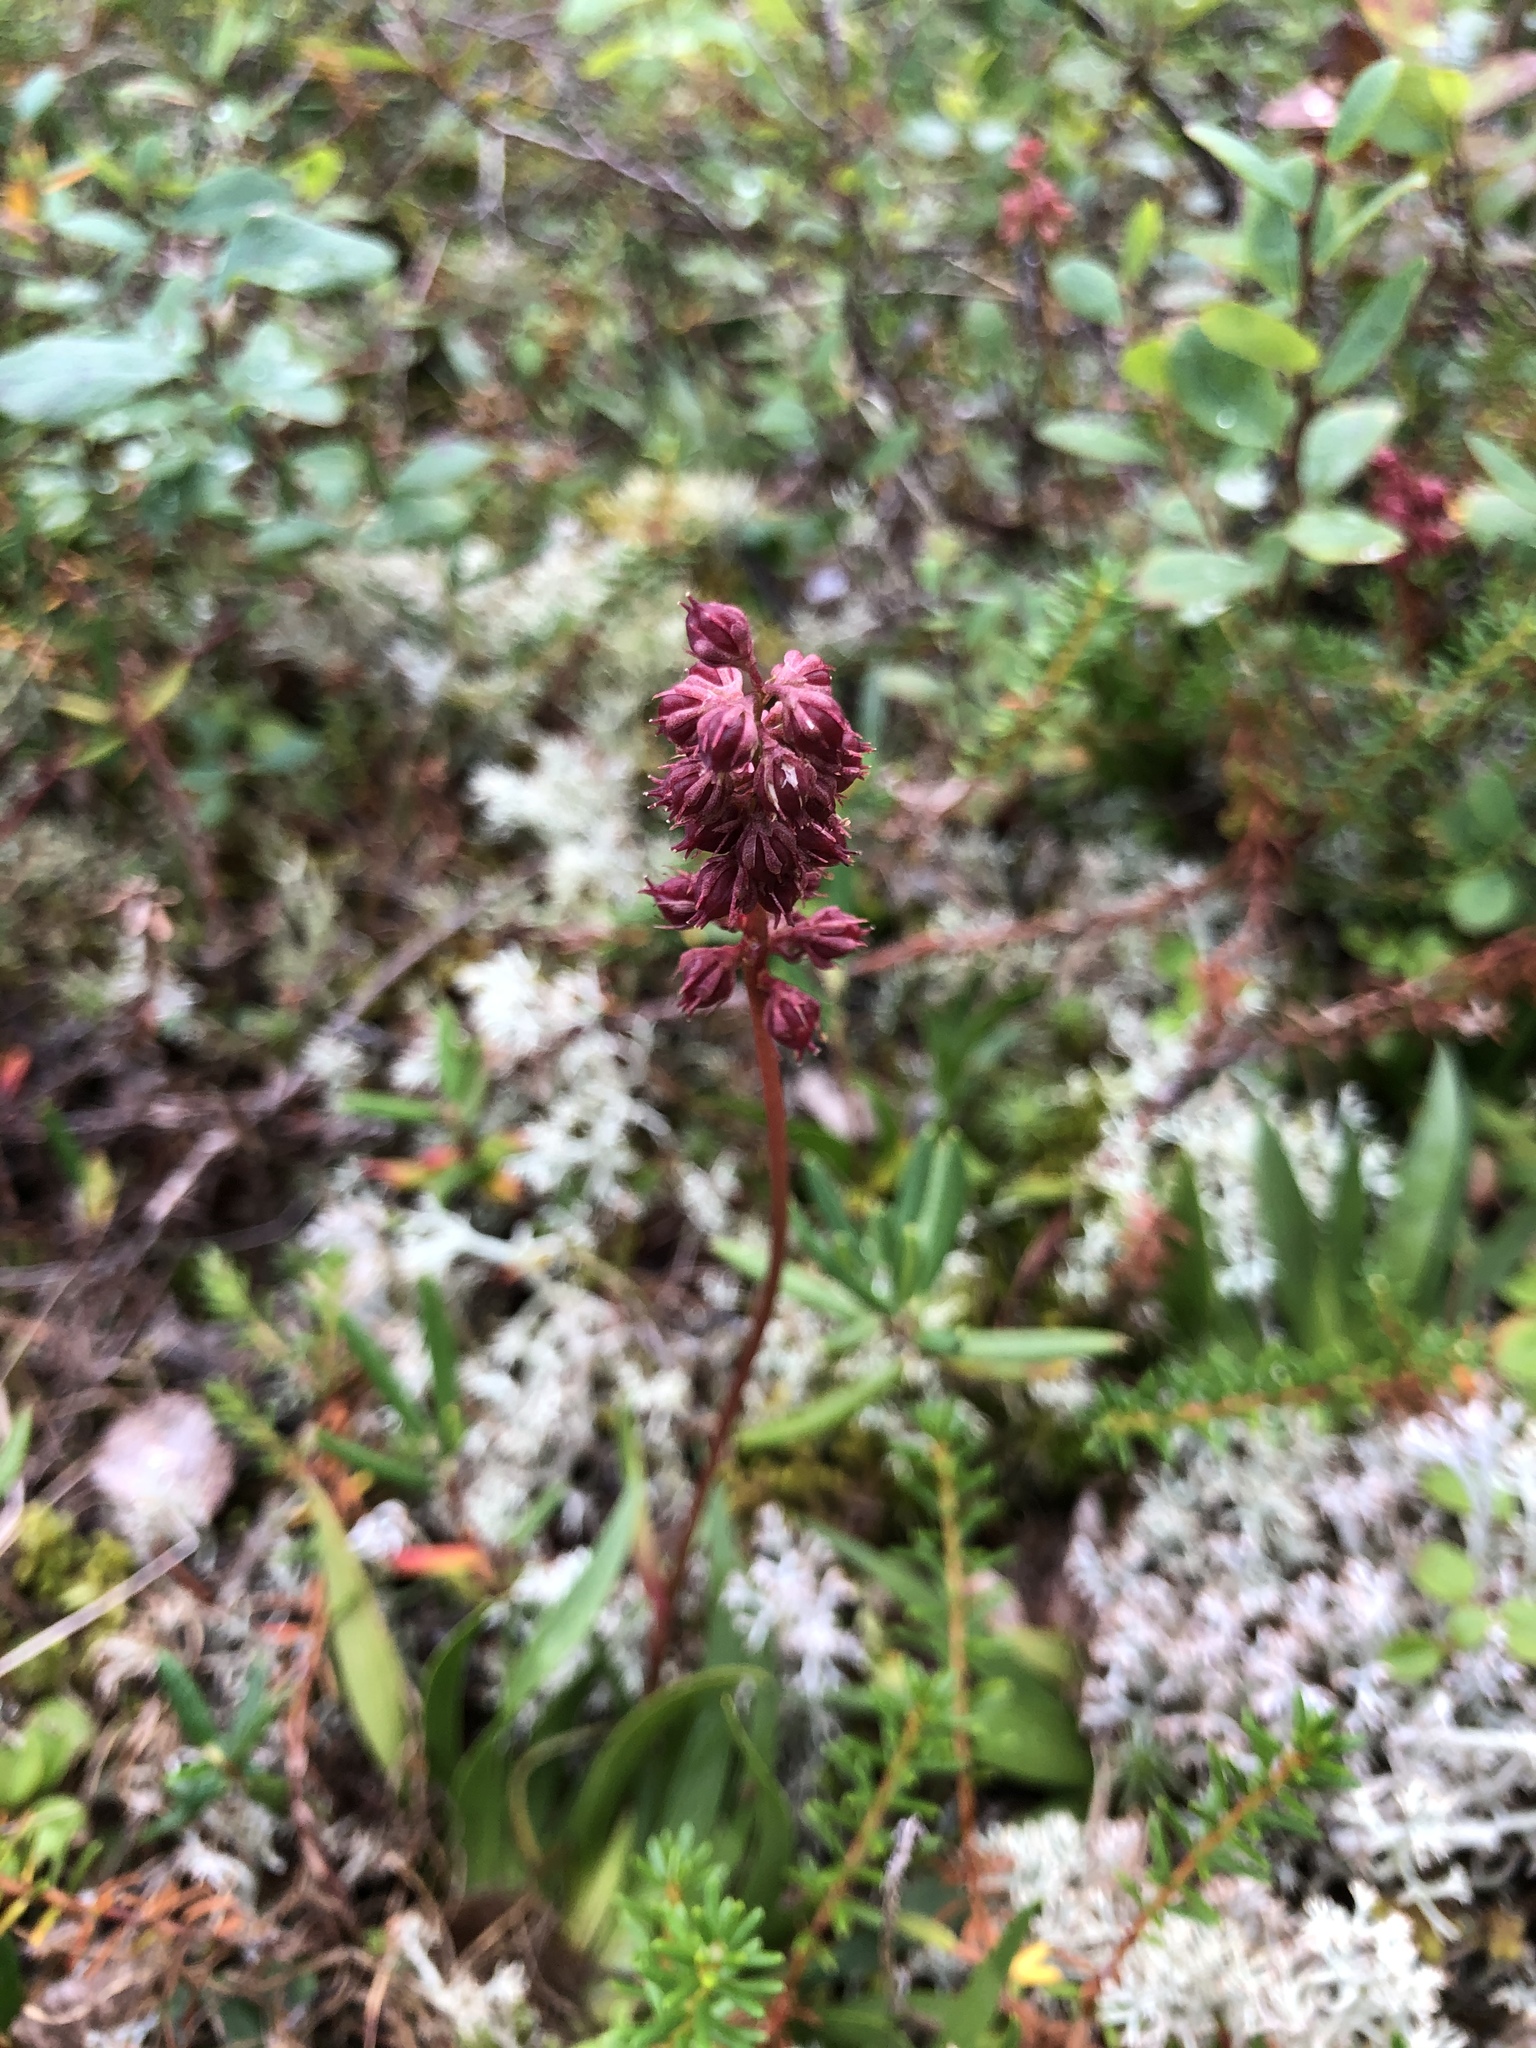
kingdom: Plantae
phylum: Tracheophyta
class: Liliopsida
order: Alismatales
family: Tofieldiaceae
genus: Tofieldia
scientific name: Tofieldia coccinea
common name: Northern false asphodel
